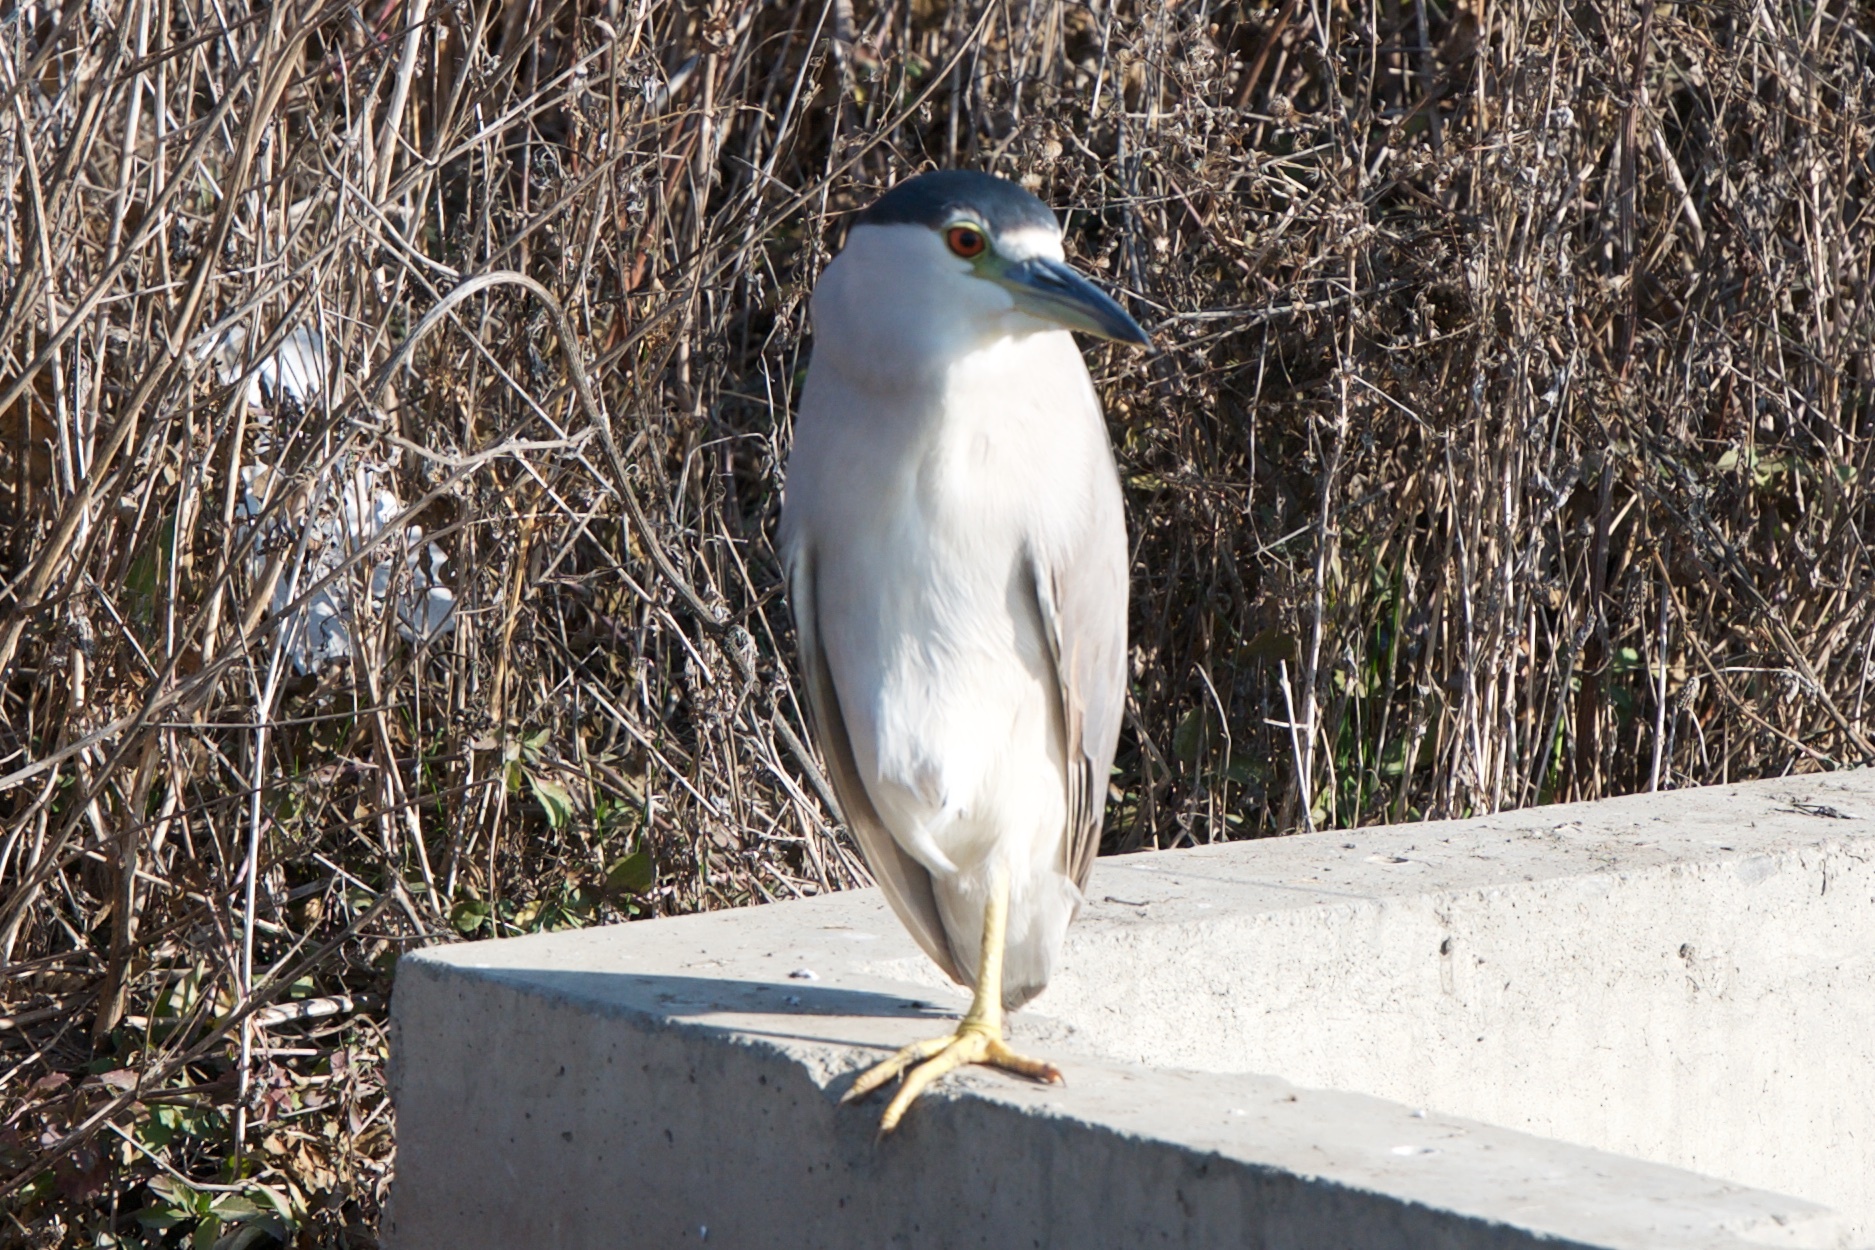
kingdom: Animalia
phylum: Chordata
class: Aves
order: Pelecaniformes
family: Ardeidae
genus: Nycticorax
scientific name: Nycticorax nycticorax
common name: Black-crowned night heron
